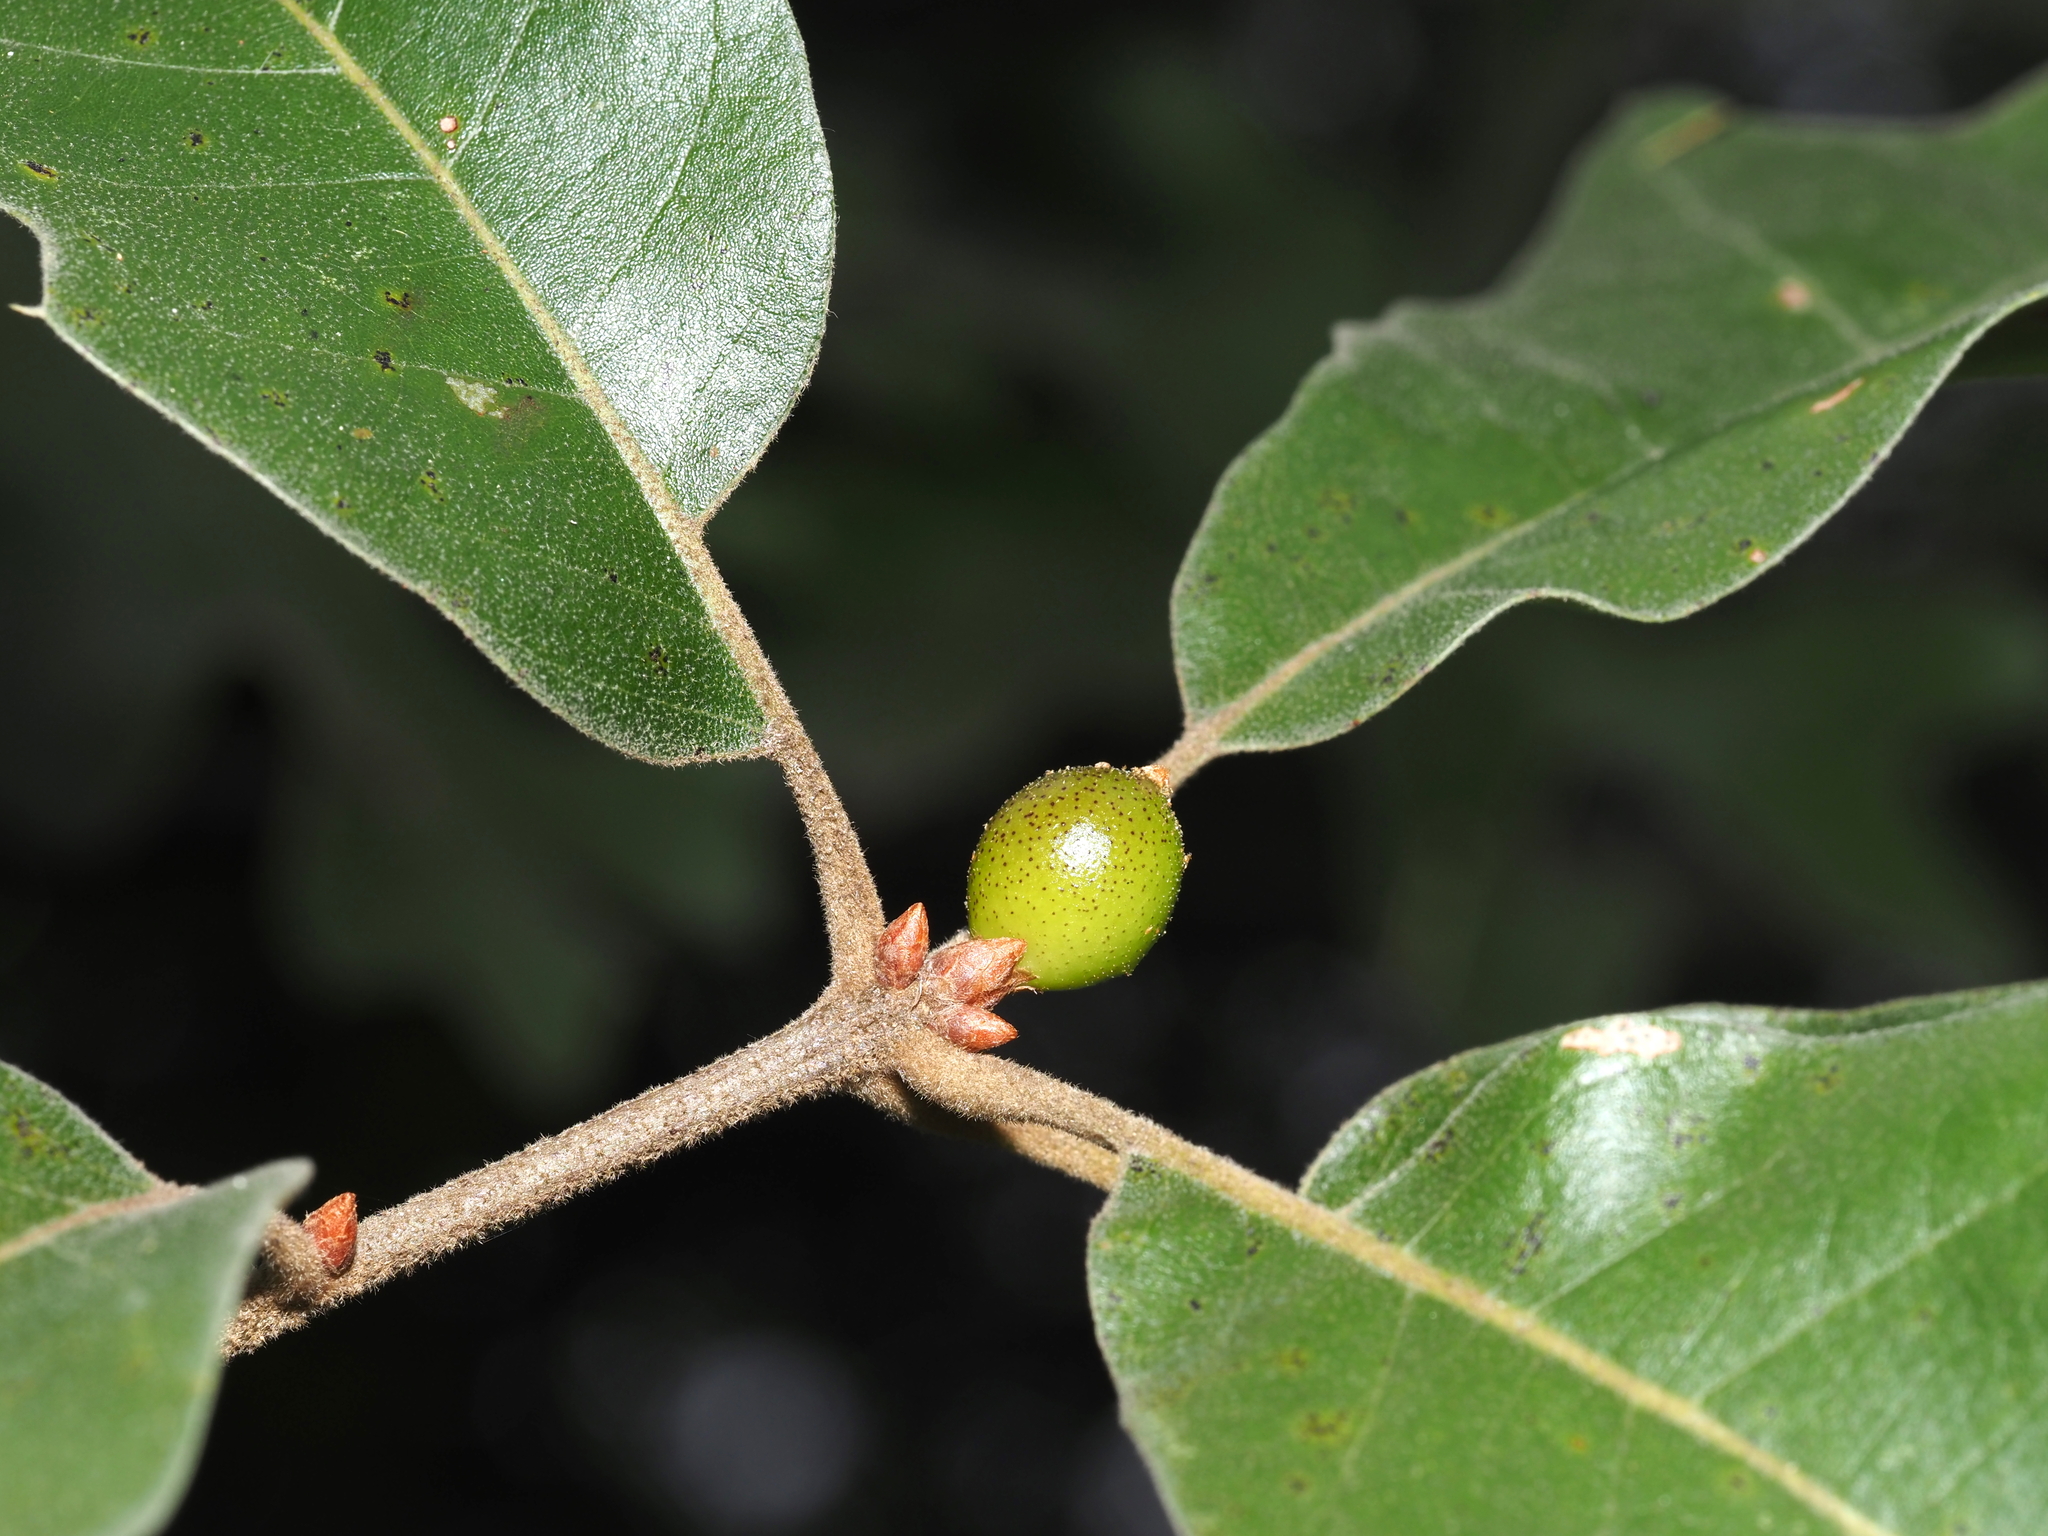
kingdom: Animalia
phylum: Arthropoda
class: Insecta
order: Hymenoptera
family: Cynipidae
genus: Amphibolips
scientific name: Amphibolips
